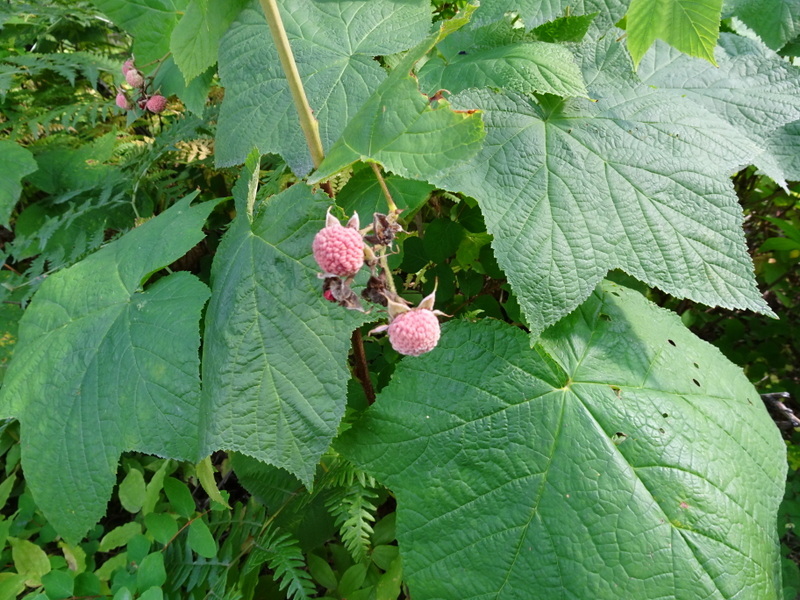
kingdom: Plantae
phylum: Tracheophyta
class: Magnoliopsida
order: Rosales
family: Rosaceae
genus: Rubus
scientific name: Rubus parviflorus
